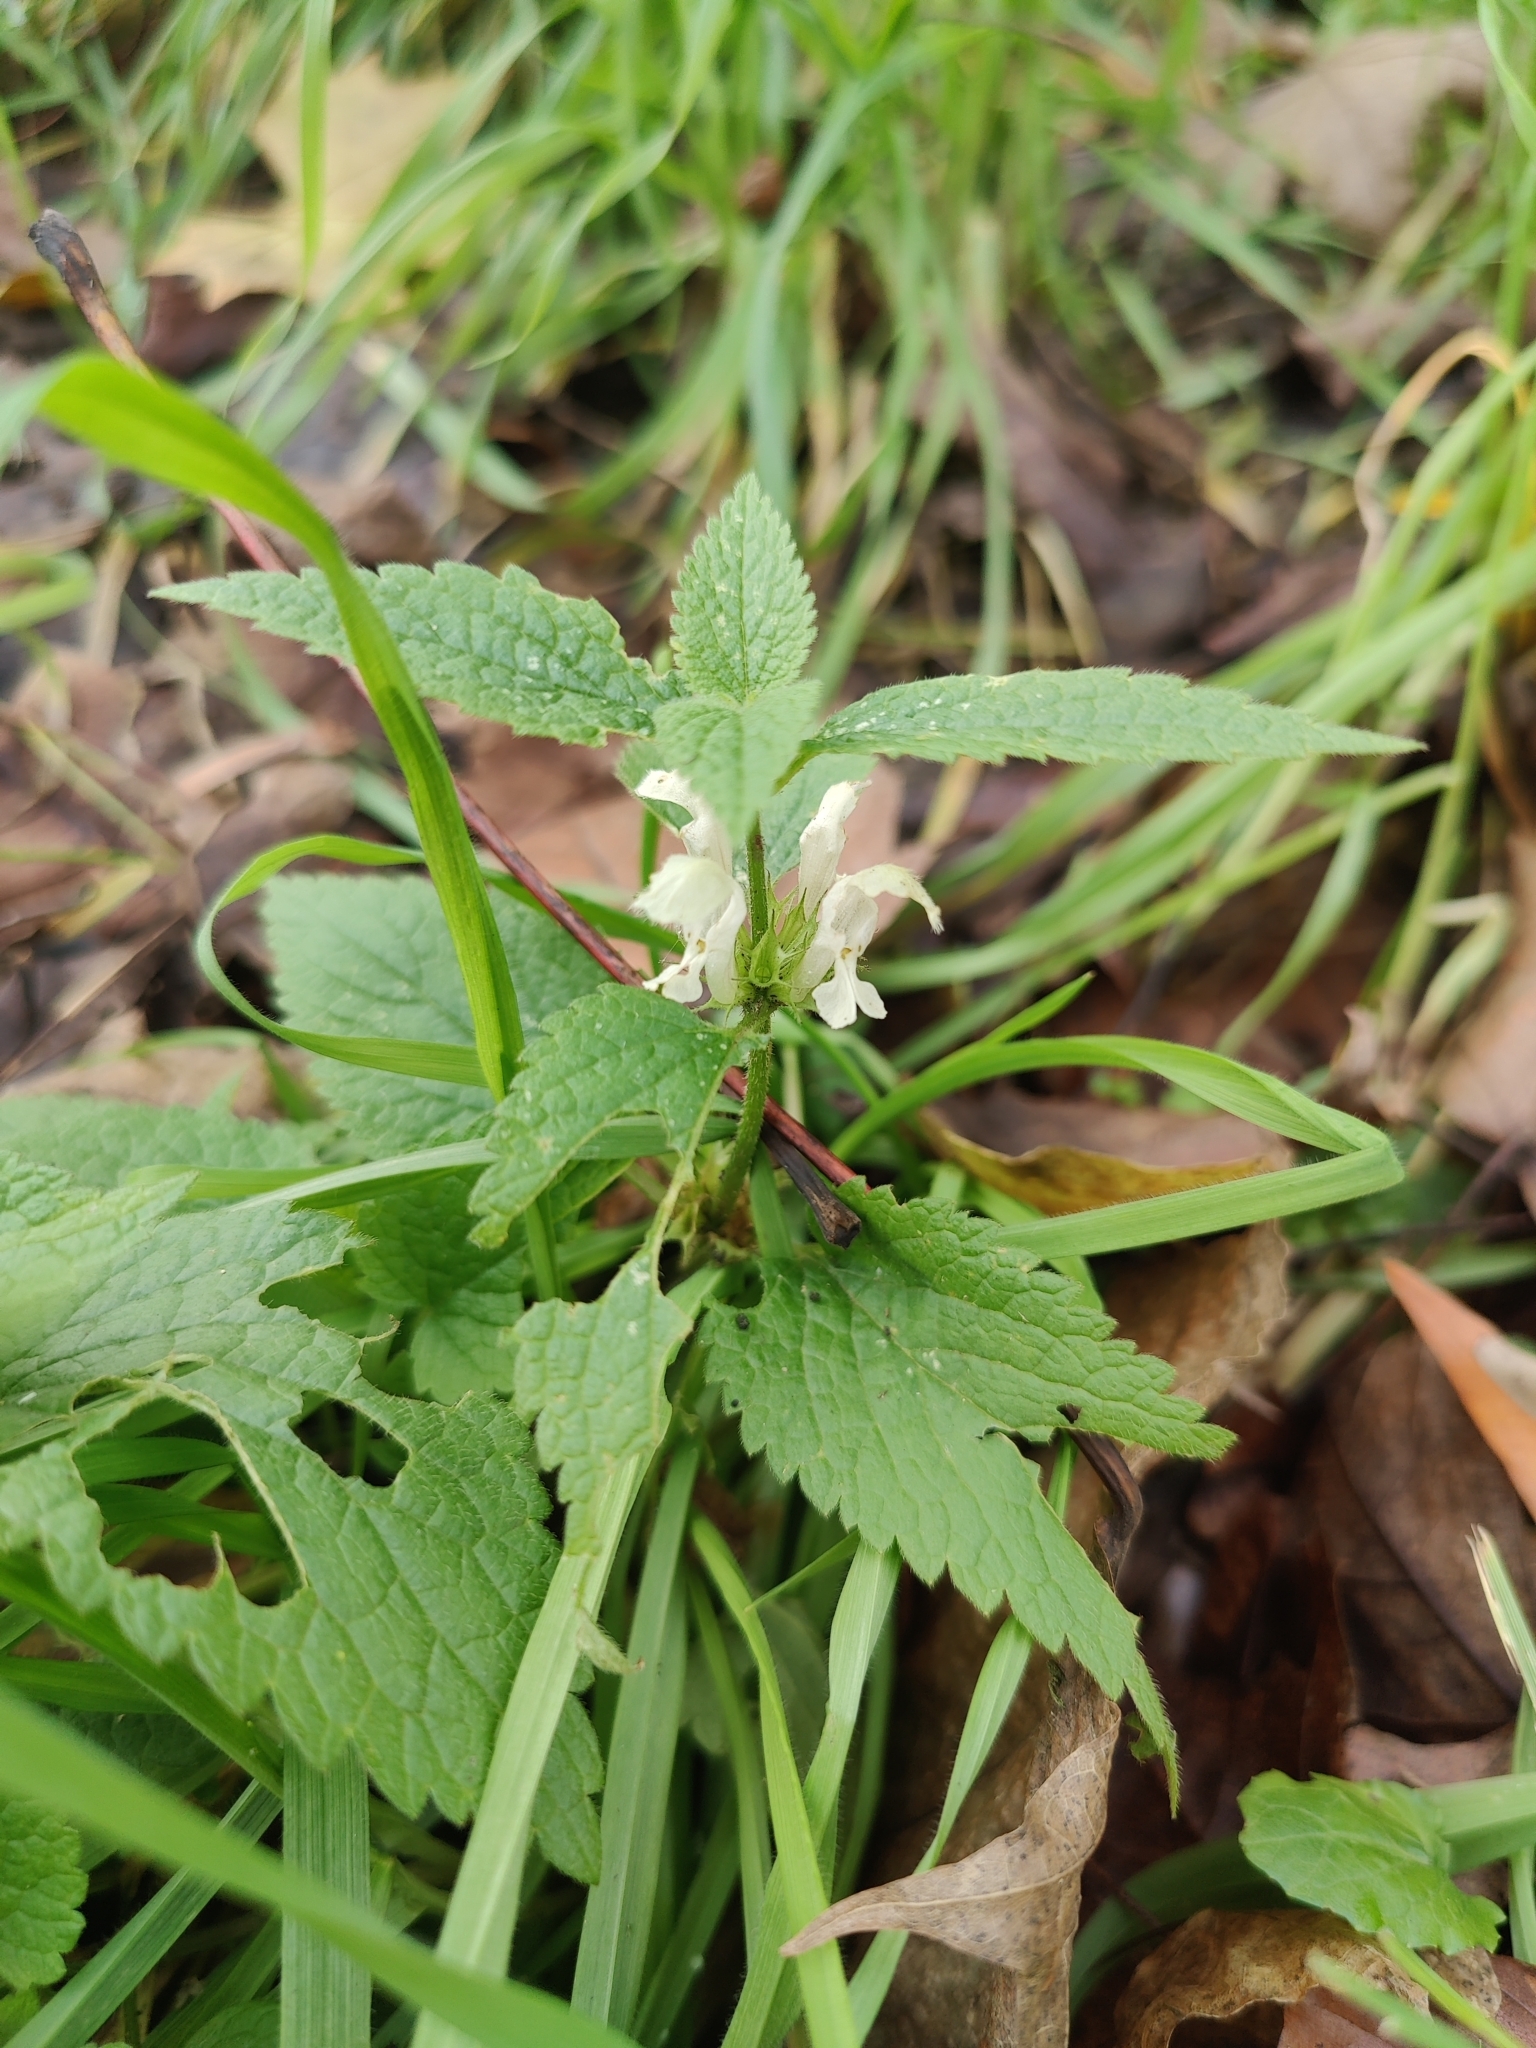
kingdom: Plantae
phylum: Tracheophyta
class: Magnoliopsida
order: Lamiales
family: Lamiaceae
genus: Lamium
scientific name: Lamium album
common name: White dead-nettle
